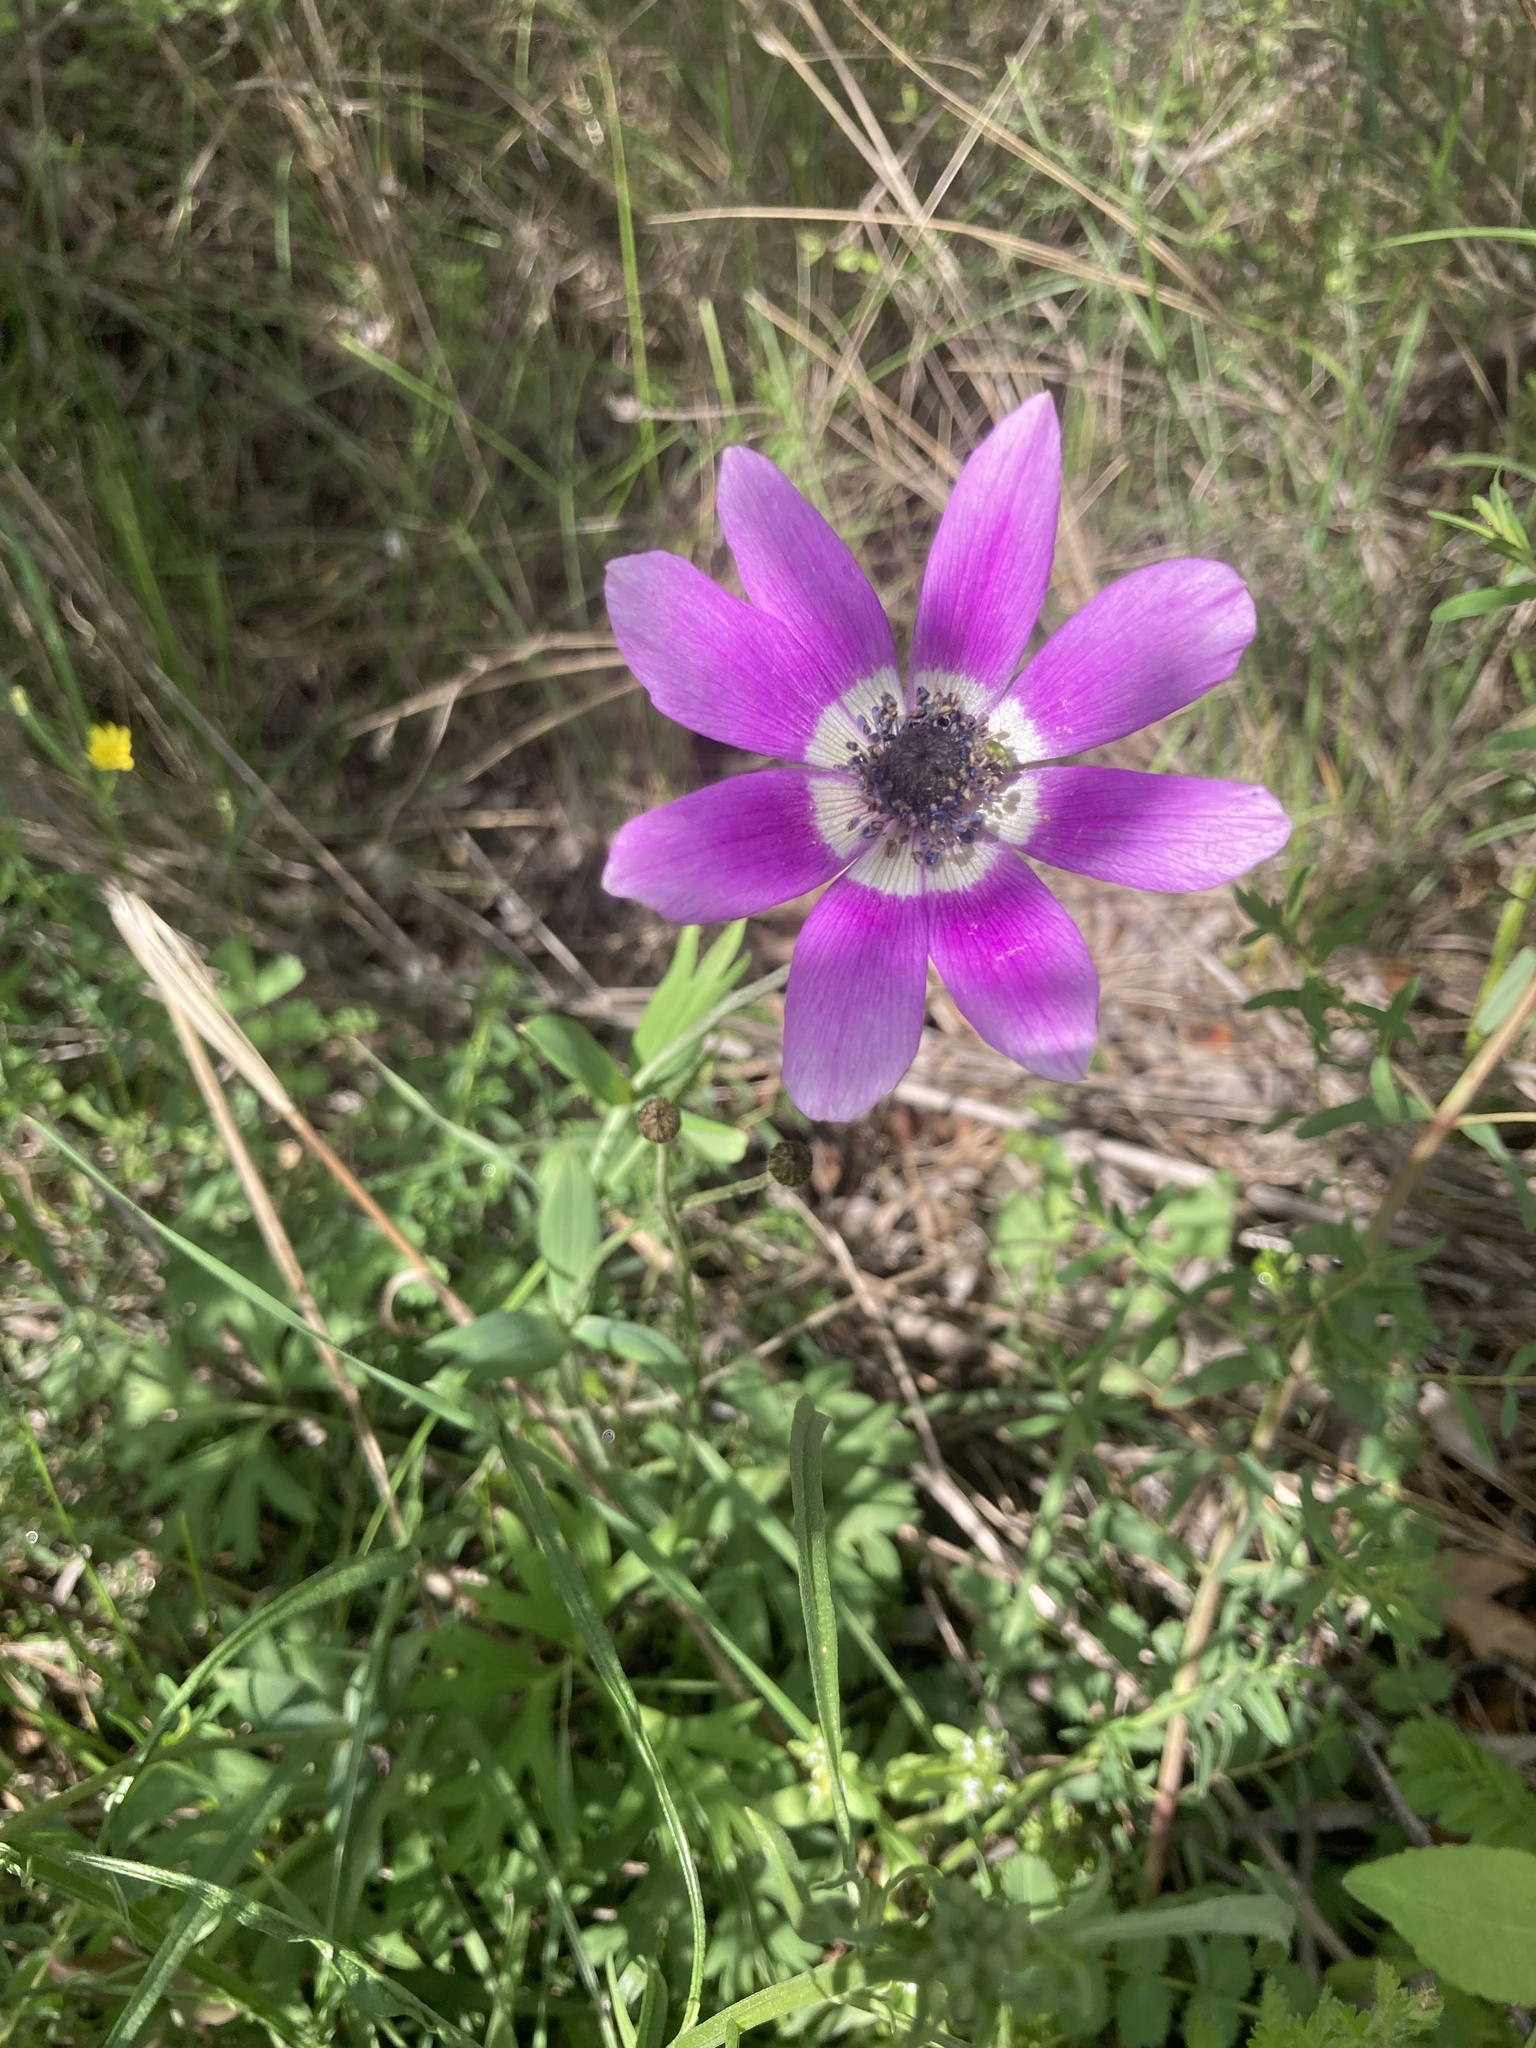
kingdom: Plantae
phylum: Tracheophyta
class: Magnoliopsida
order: Ranunculales
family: Ranunculaceae
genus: Anemone
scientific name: Anemone pavonina
